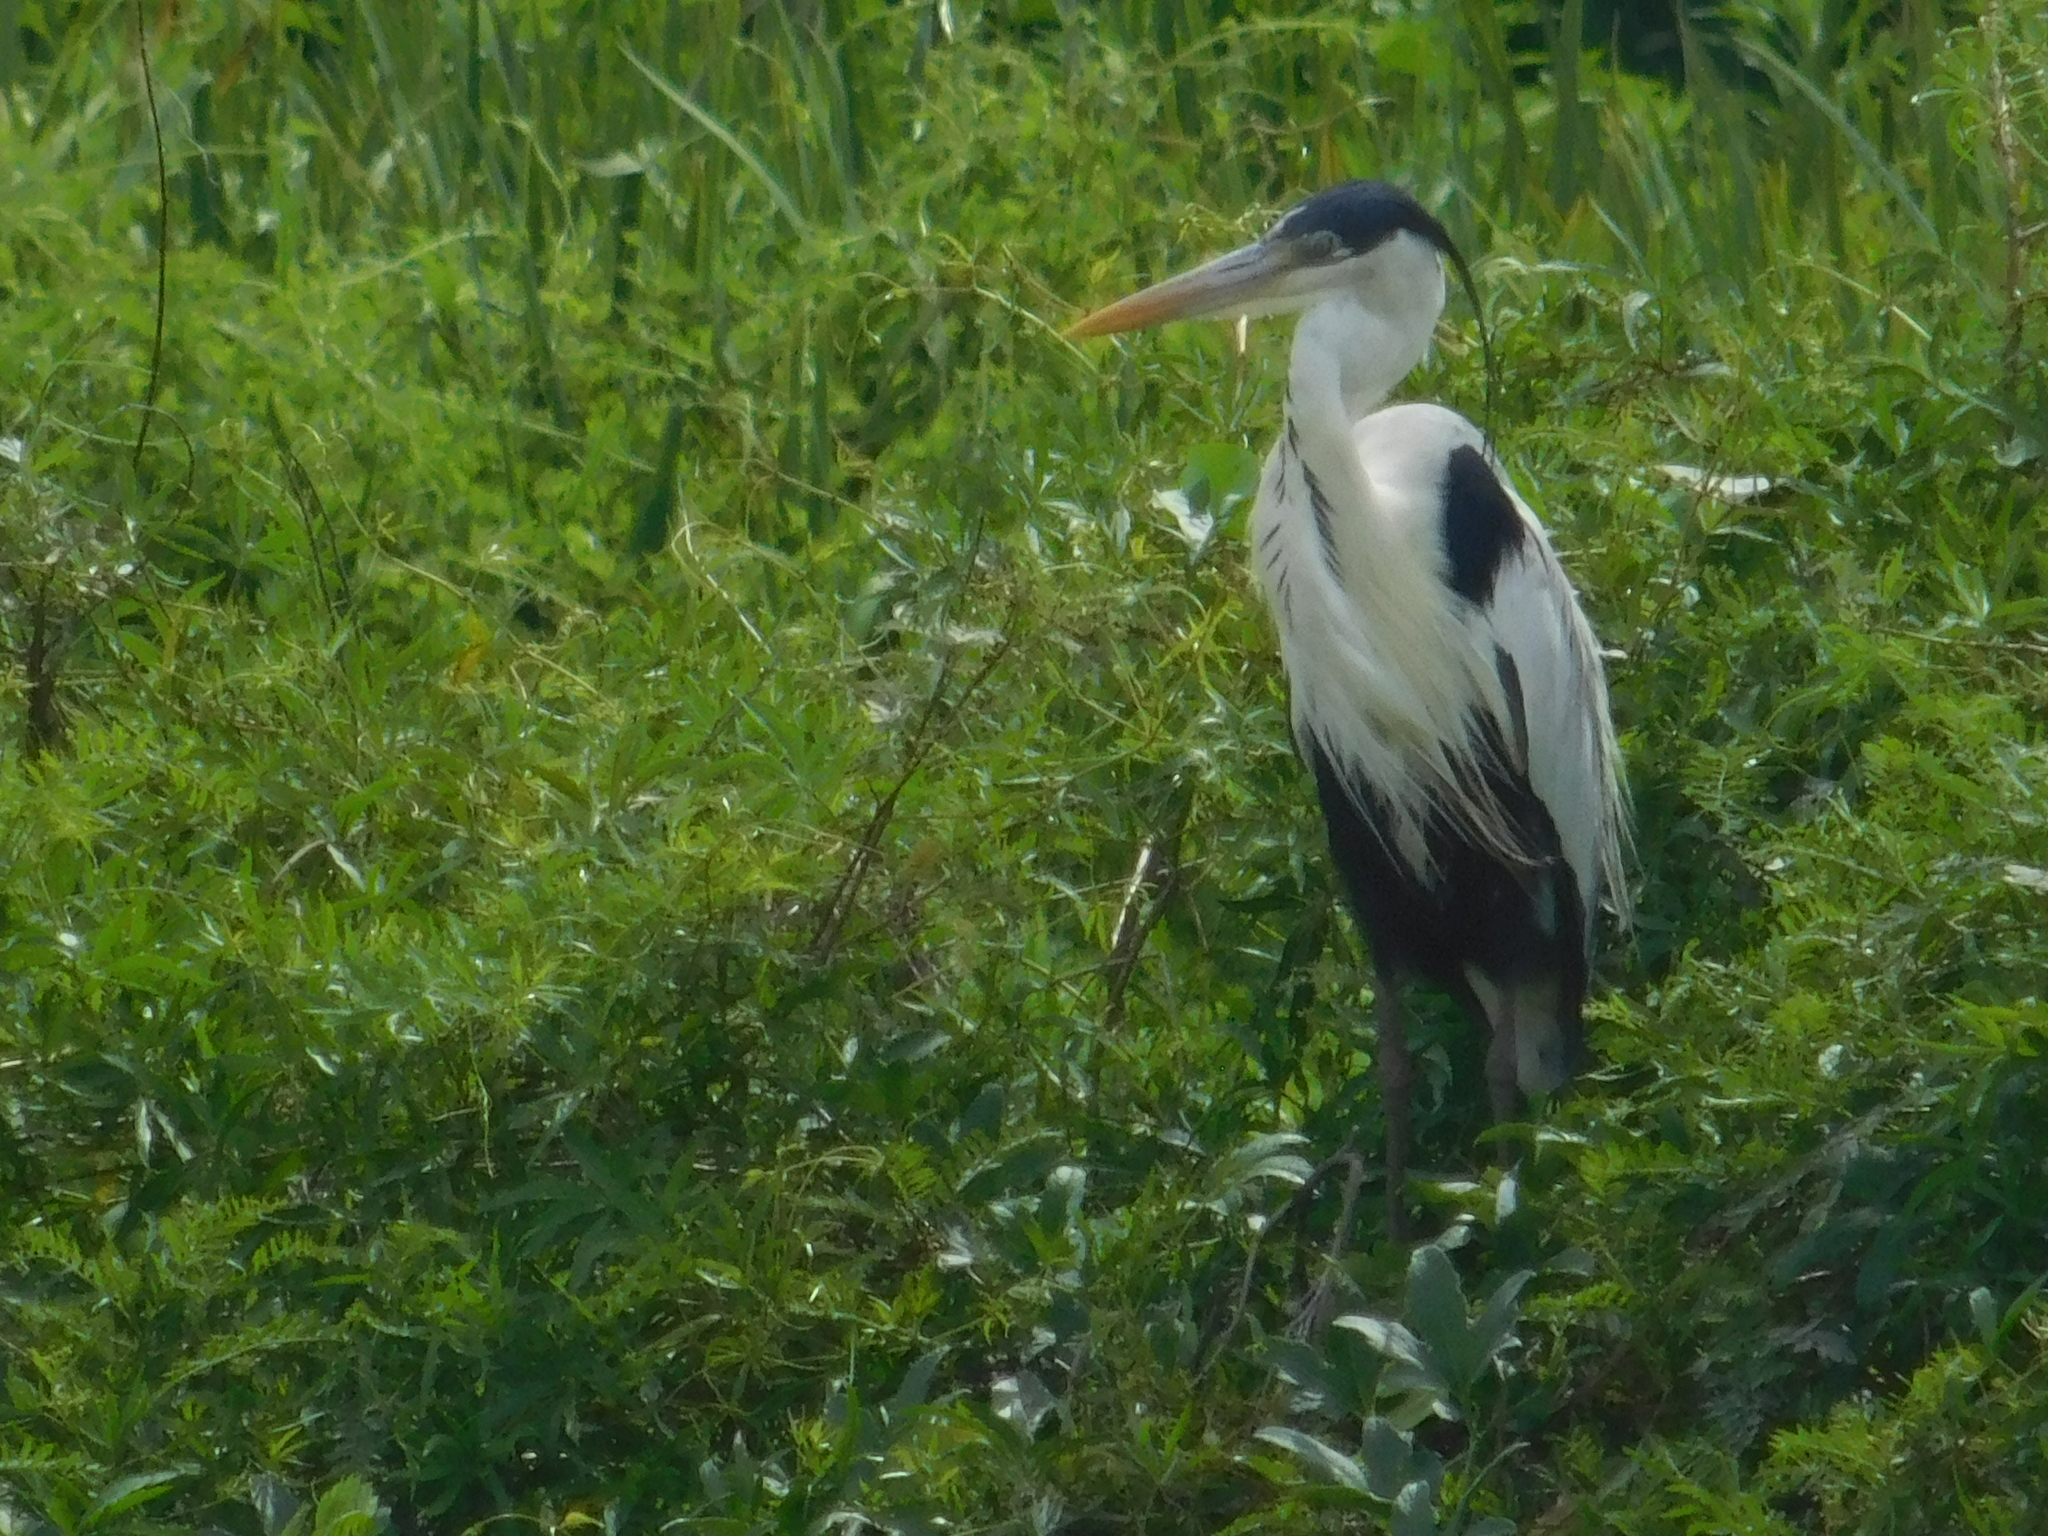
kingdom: Animalia
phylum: Chordata
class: Aves
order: Pelecaniformes
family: Ardeidae
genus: Ardea
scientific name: Ardea cocoi
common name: Cocoi heron
